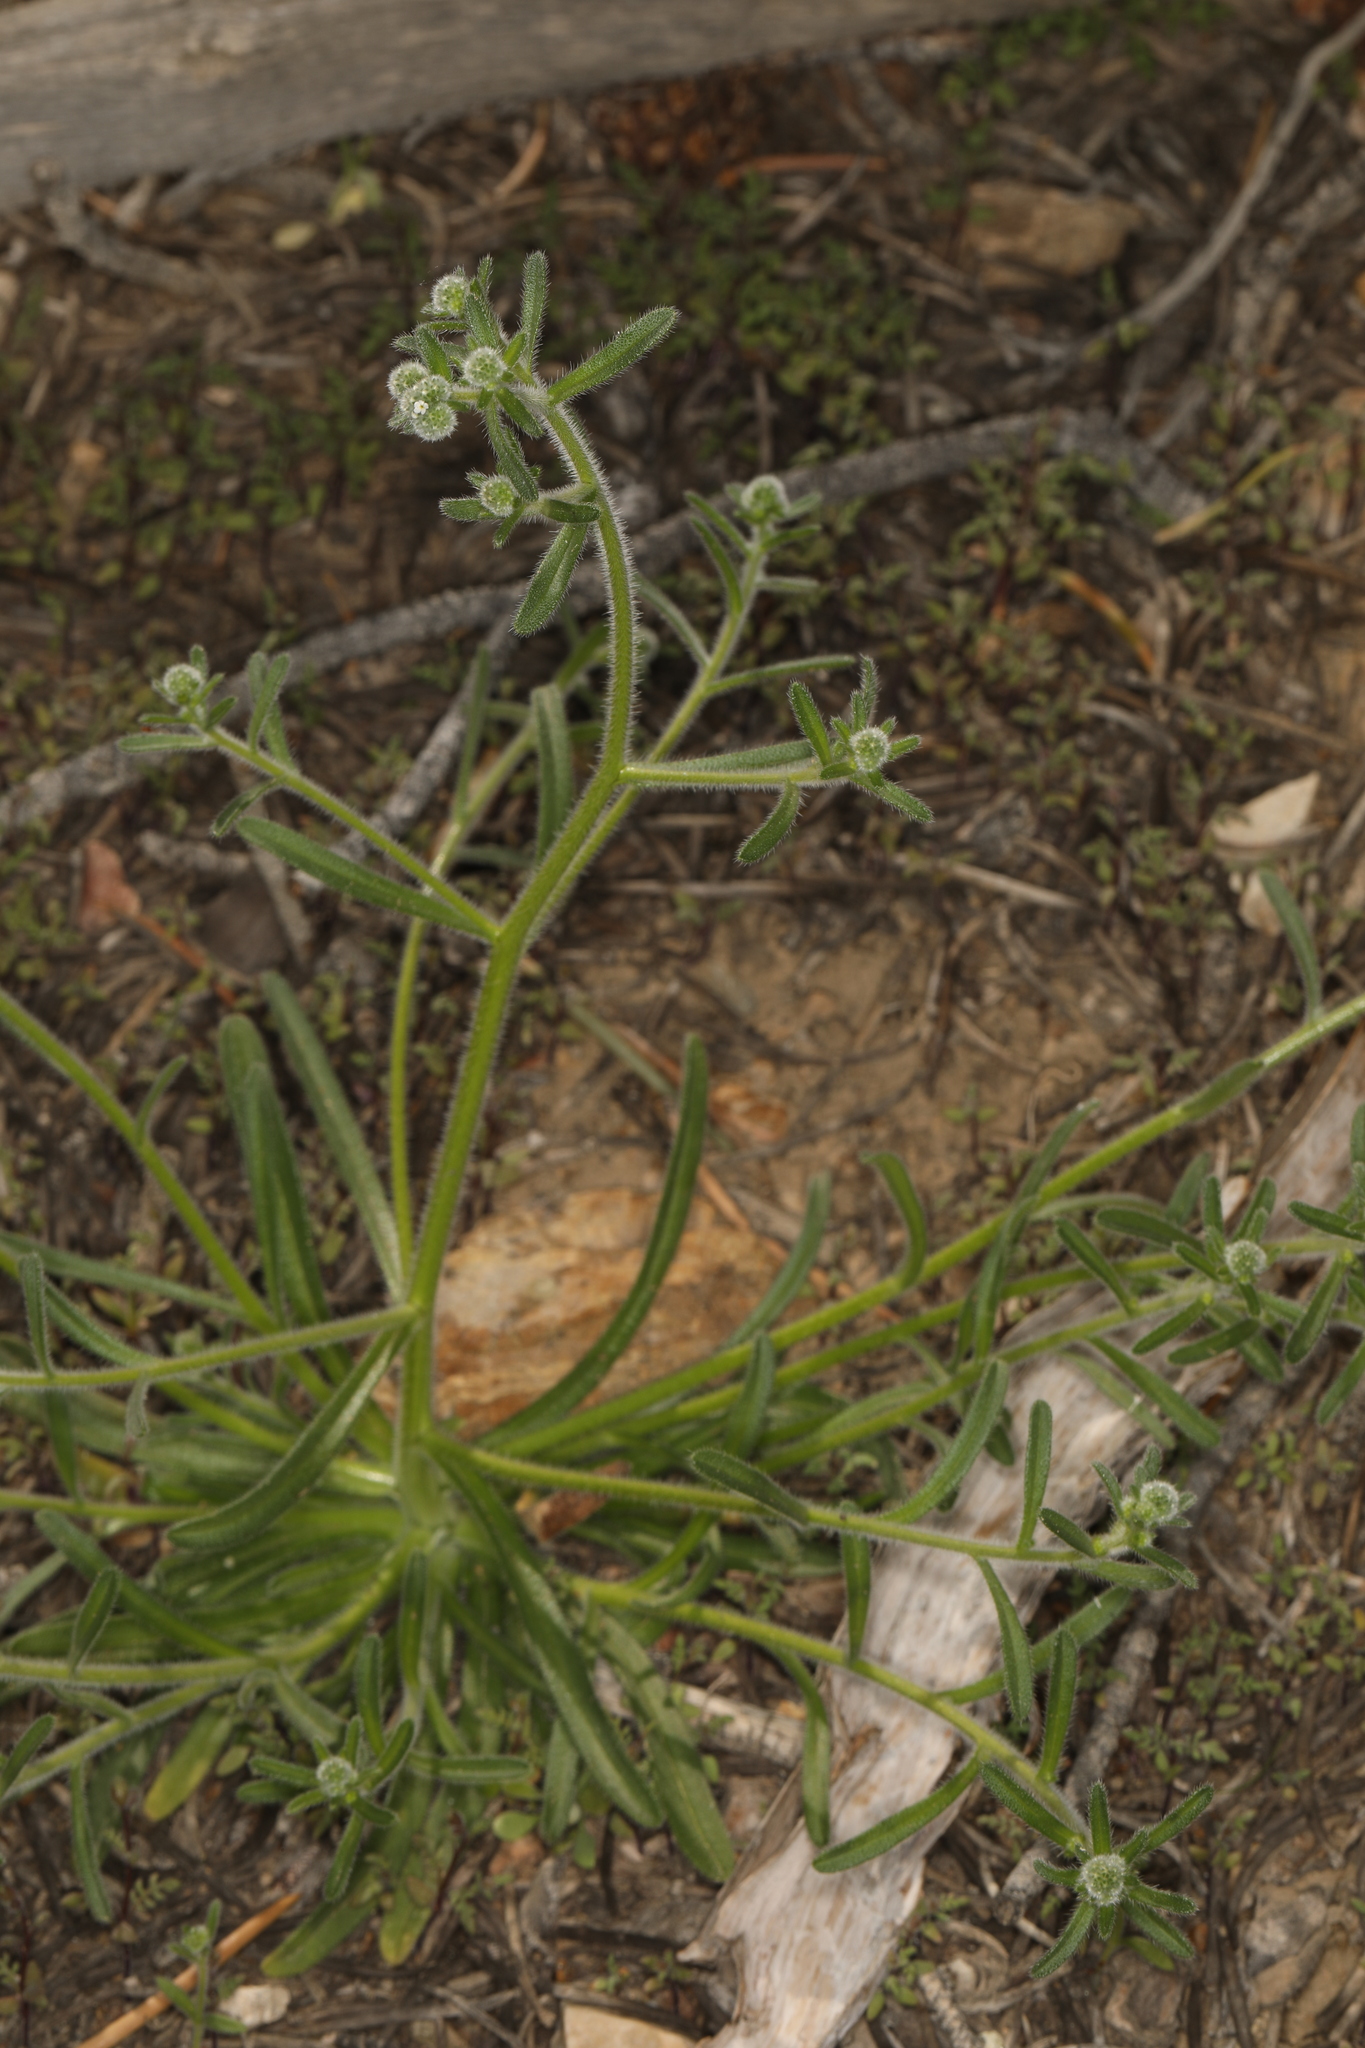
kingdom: Plantae
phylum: Tracheophyta
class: Magnoliopsida
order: Boraginales
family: Boraginaceae
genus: Cryptantha
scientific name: Cryptantha gracilis
